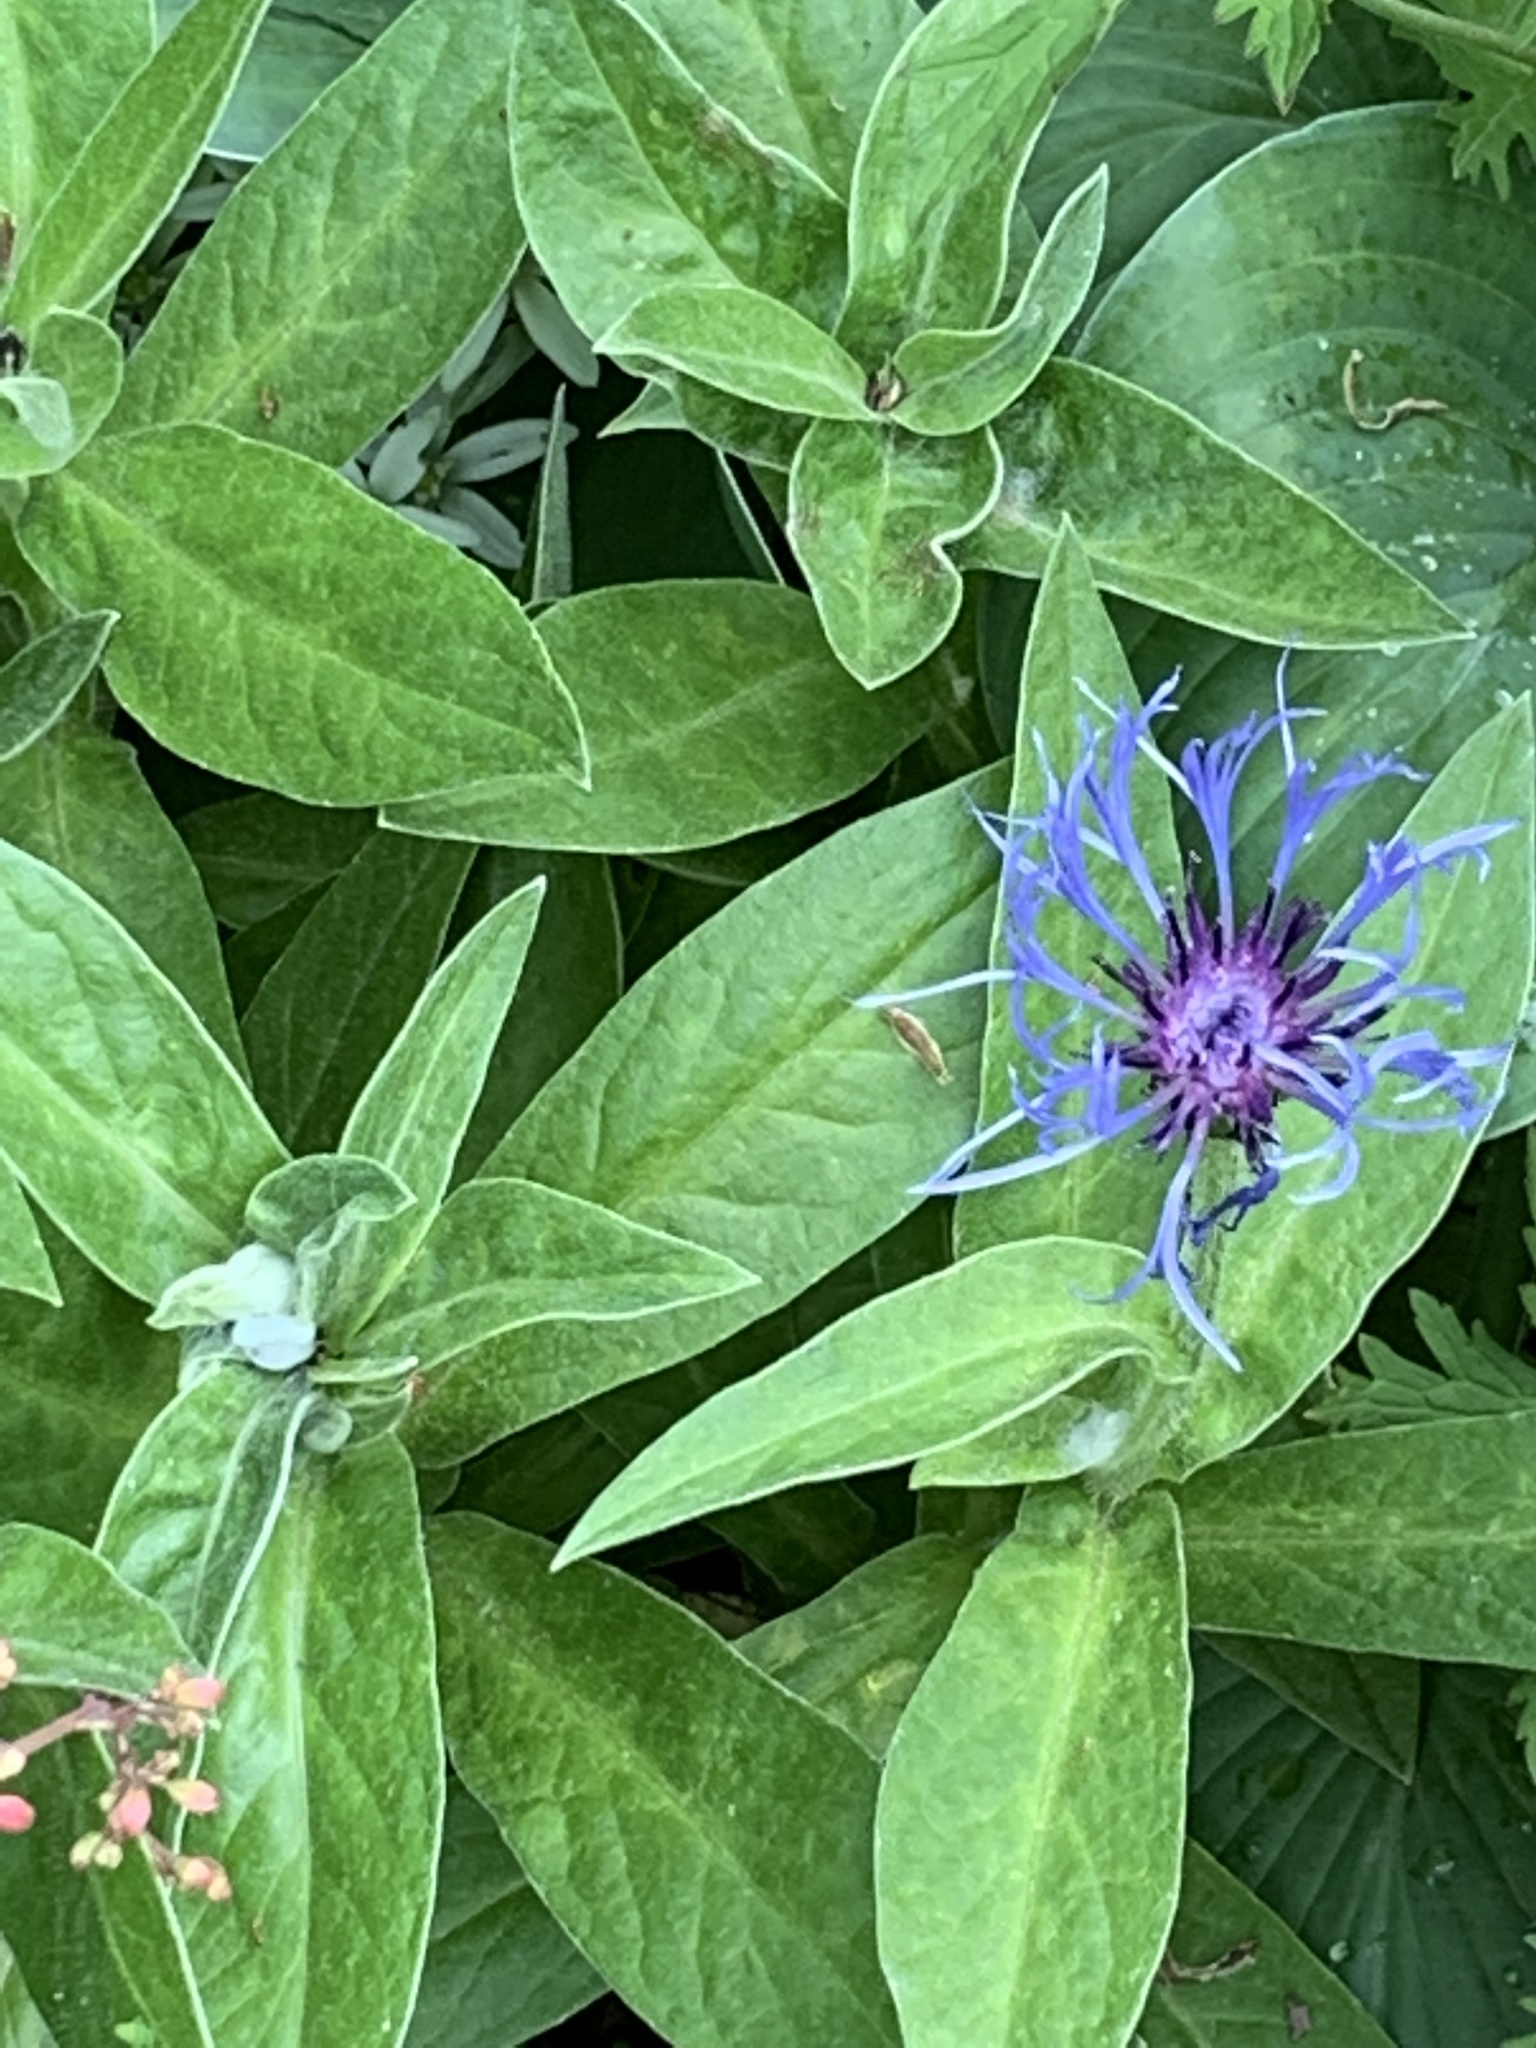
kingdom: Plantae
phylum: Tracheophyta
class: Magnoliopsida
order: Asterales
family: Asteraceae
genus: Centaurea
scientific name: Centaurea montana
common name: Perennial cornflower
